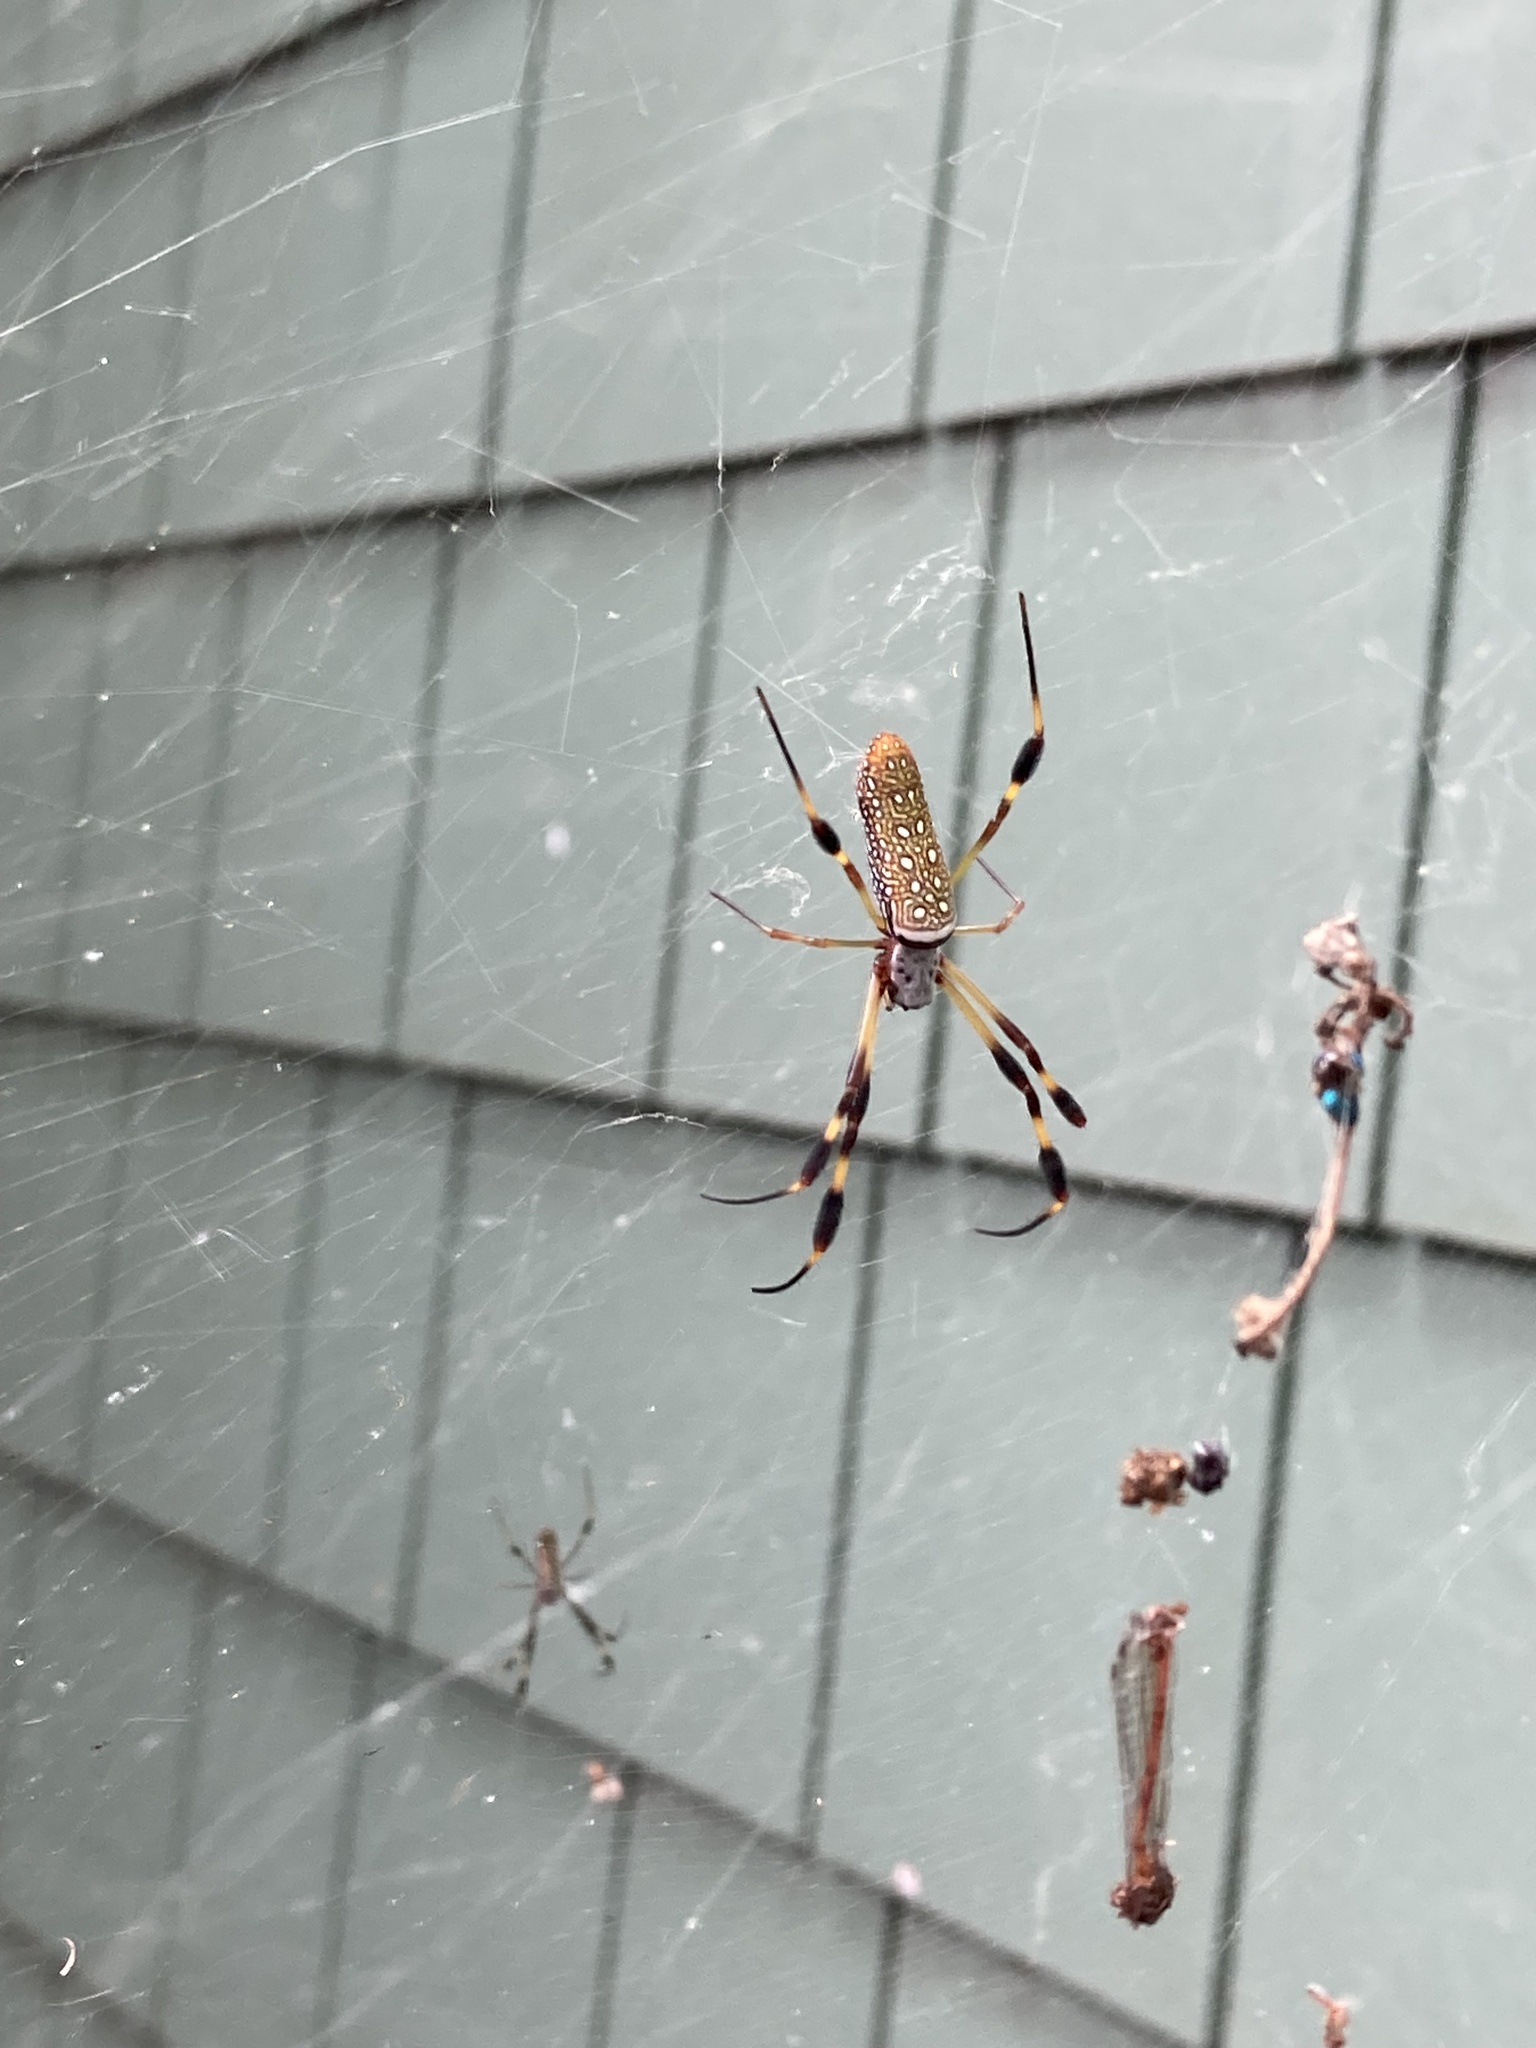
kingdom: Animalia
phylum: Arthropoda
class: Arachnida
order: Araneae
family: Araneidae
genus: Trichonephila
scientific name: Trichonephila clavipes
